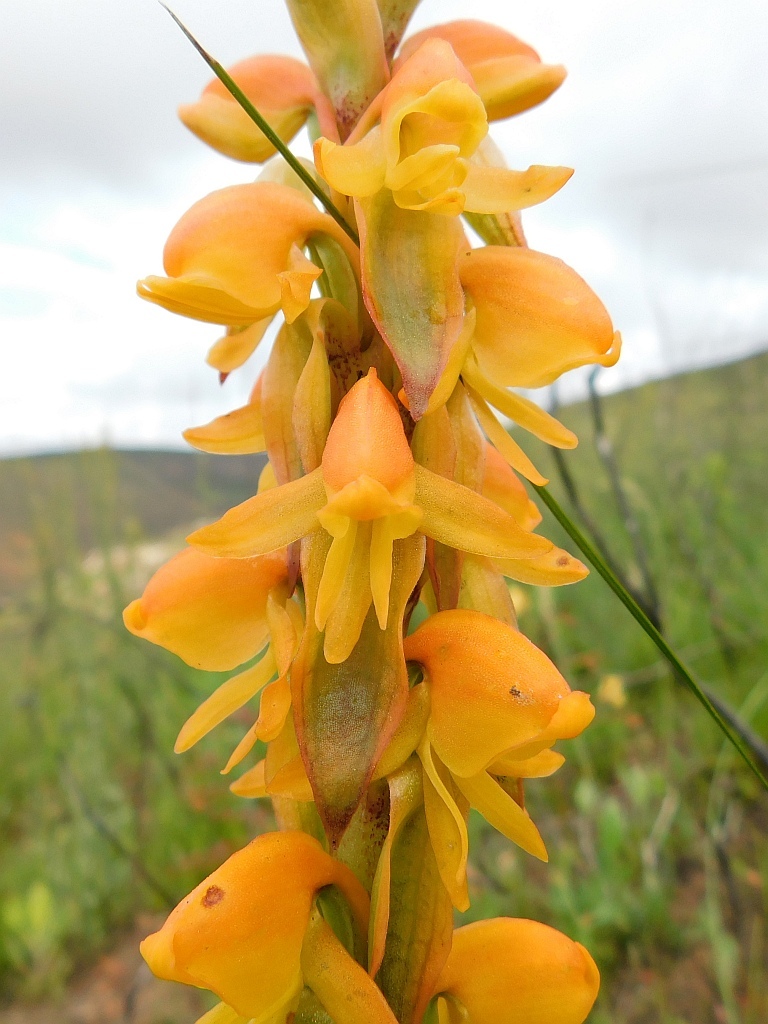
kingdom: Plantae
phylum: Tracheophyta
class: Liliopsida
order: Asparagales
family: Orchidaceae
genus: Satyrium
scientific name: Satyrium coriifolium
